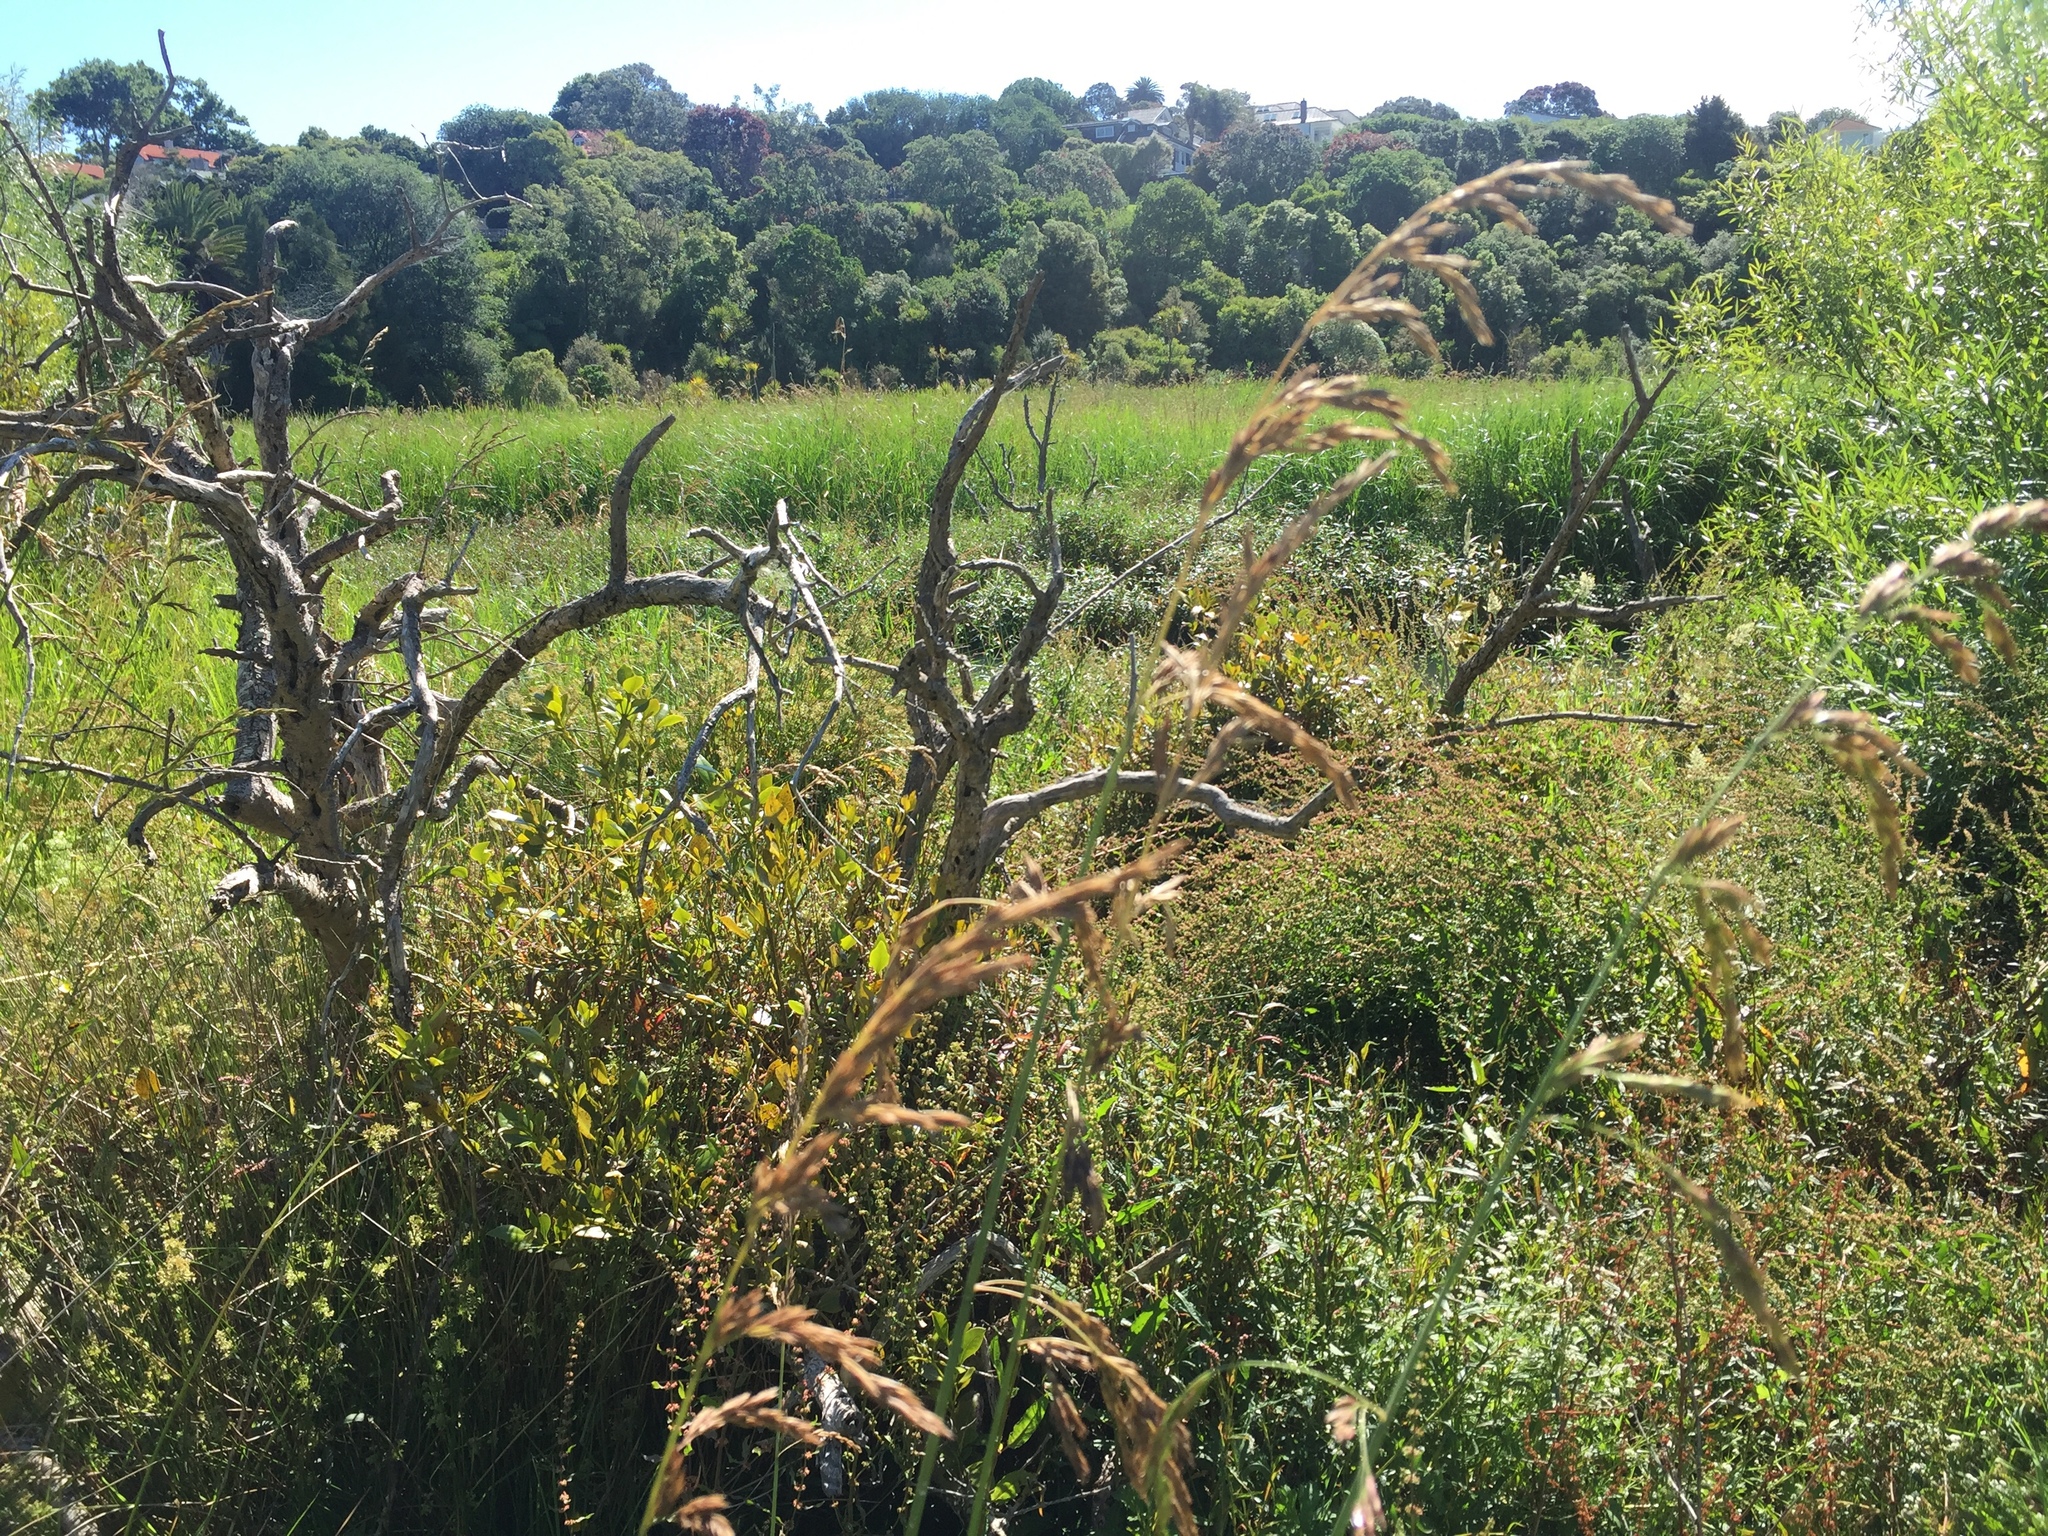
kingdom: Plantae
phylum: Tracheophyta
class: Liliopsida
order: Poales
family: Poaceae
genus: Lolium
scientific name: Lolium arundinaceum
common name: Reed fescue
